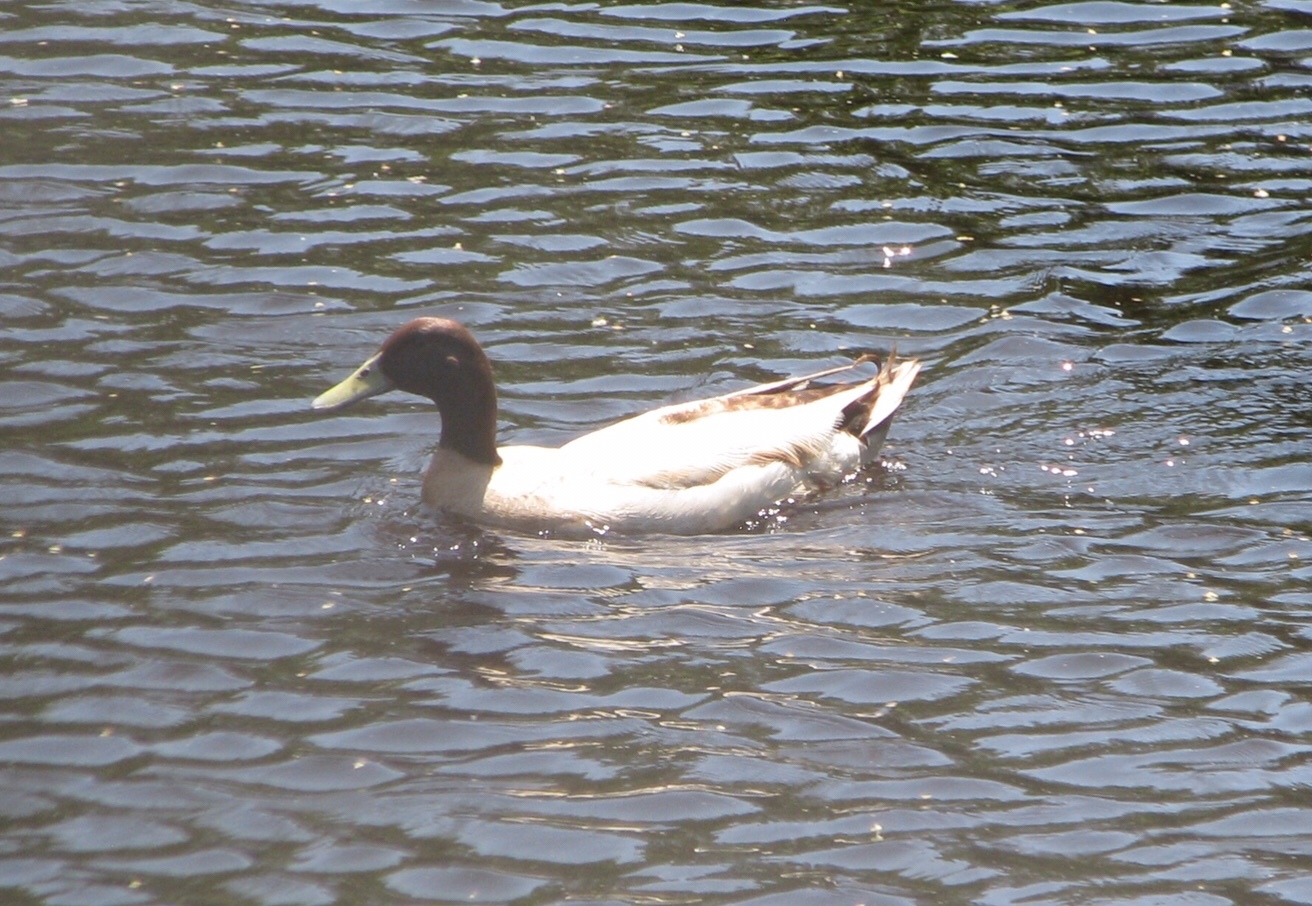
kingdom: Animalia
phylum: Chordata
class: Aves
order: Anseriformes
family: Anatidae
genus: Anas
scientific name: Anas platyrhynchos
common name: Mallard
